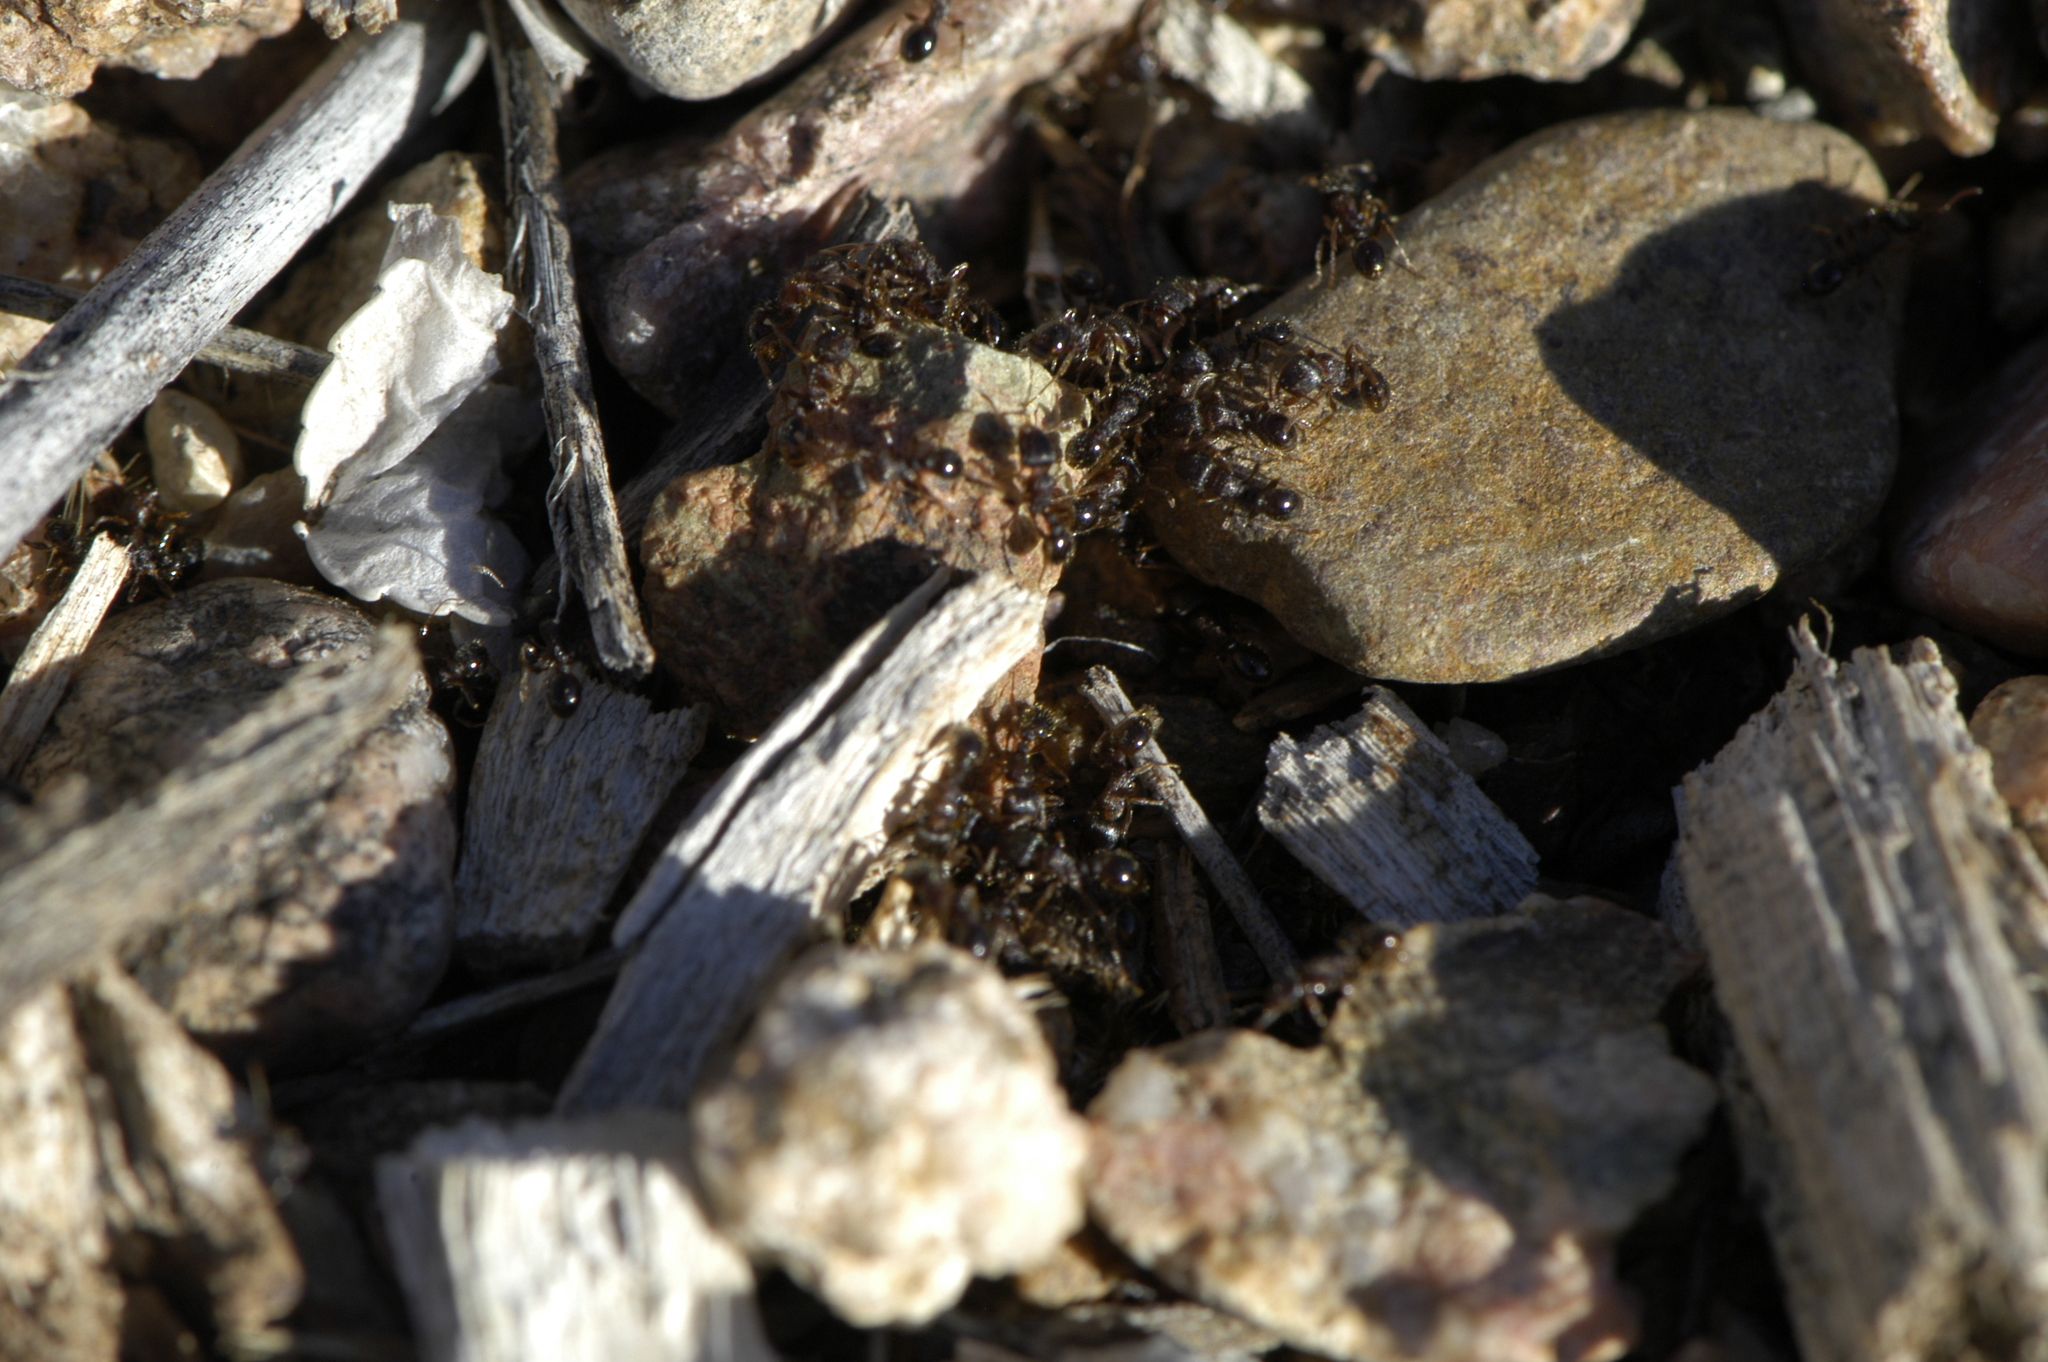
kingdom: Animalia
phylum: Arthropoda
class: Insecta
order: Hymenoptera
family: Formicidae
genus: Tetramorium
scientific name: Tetramorium immigrans
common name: Pavement ant
